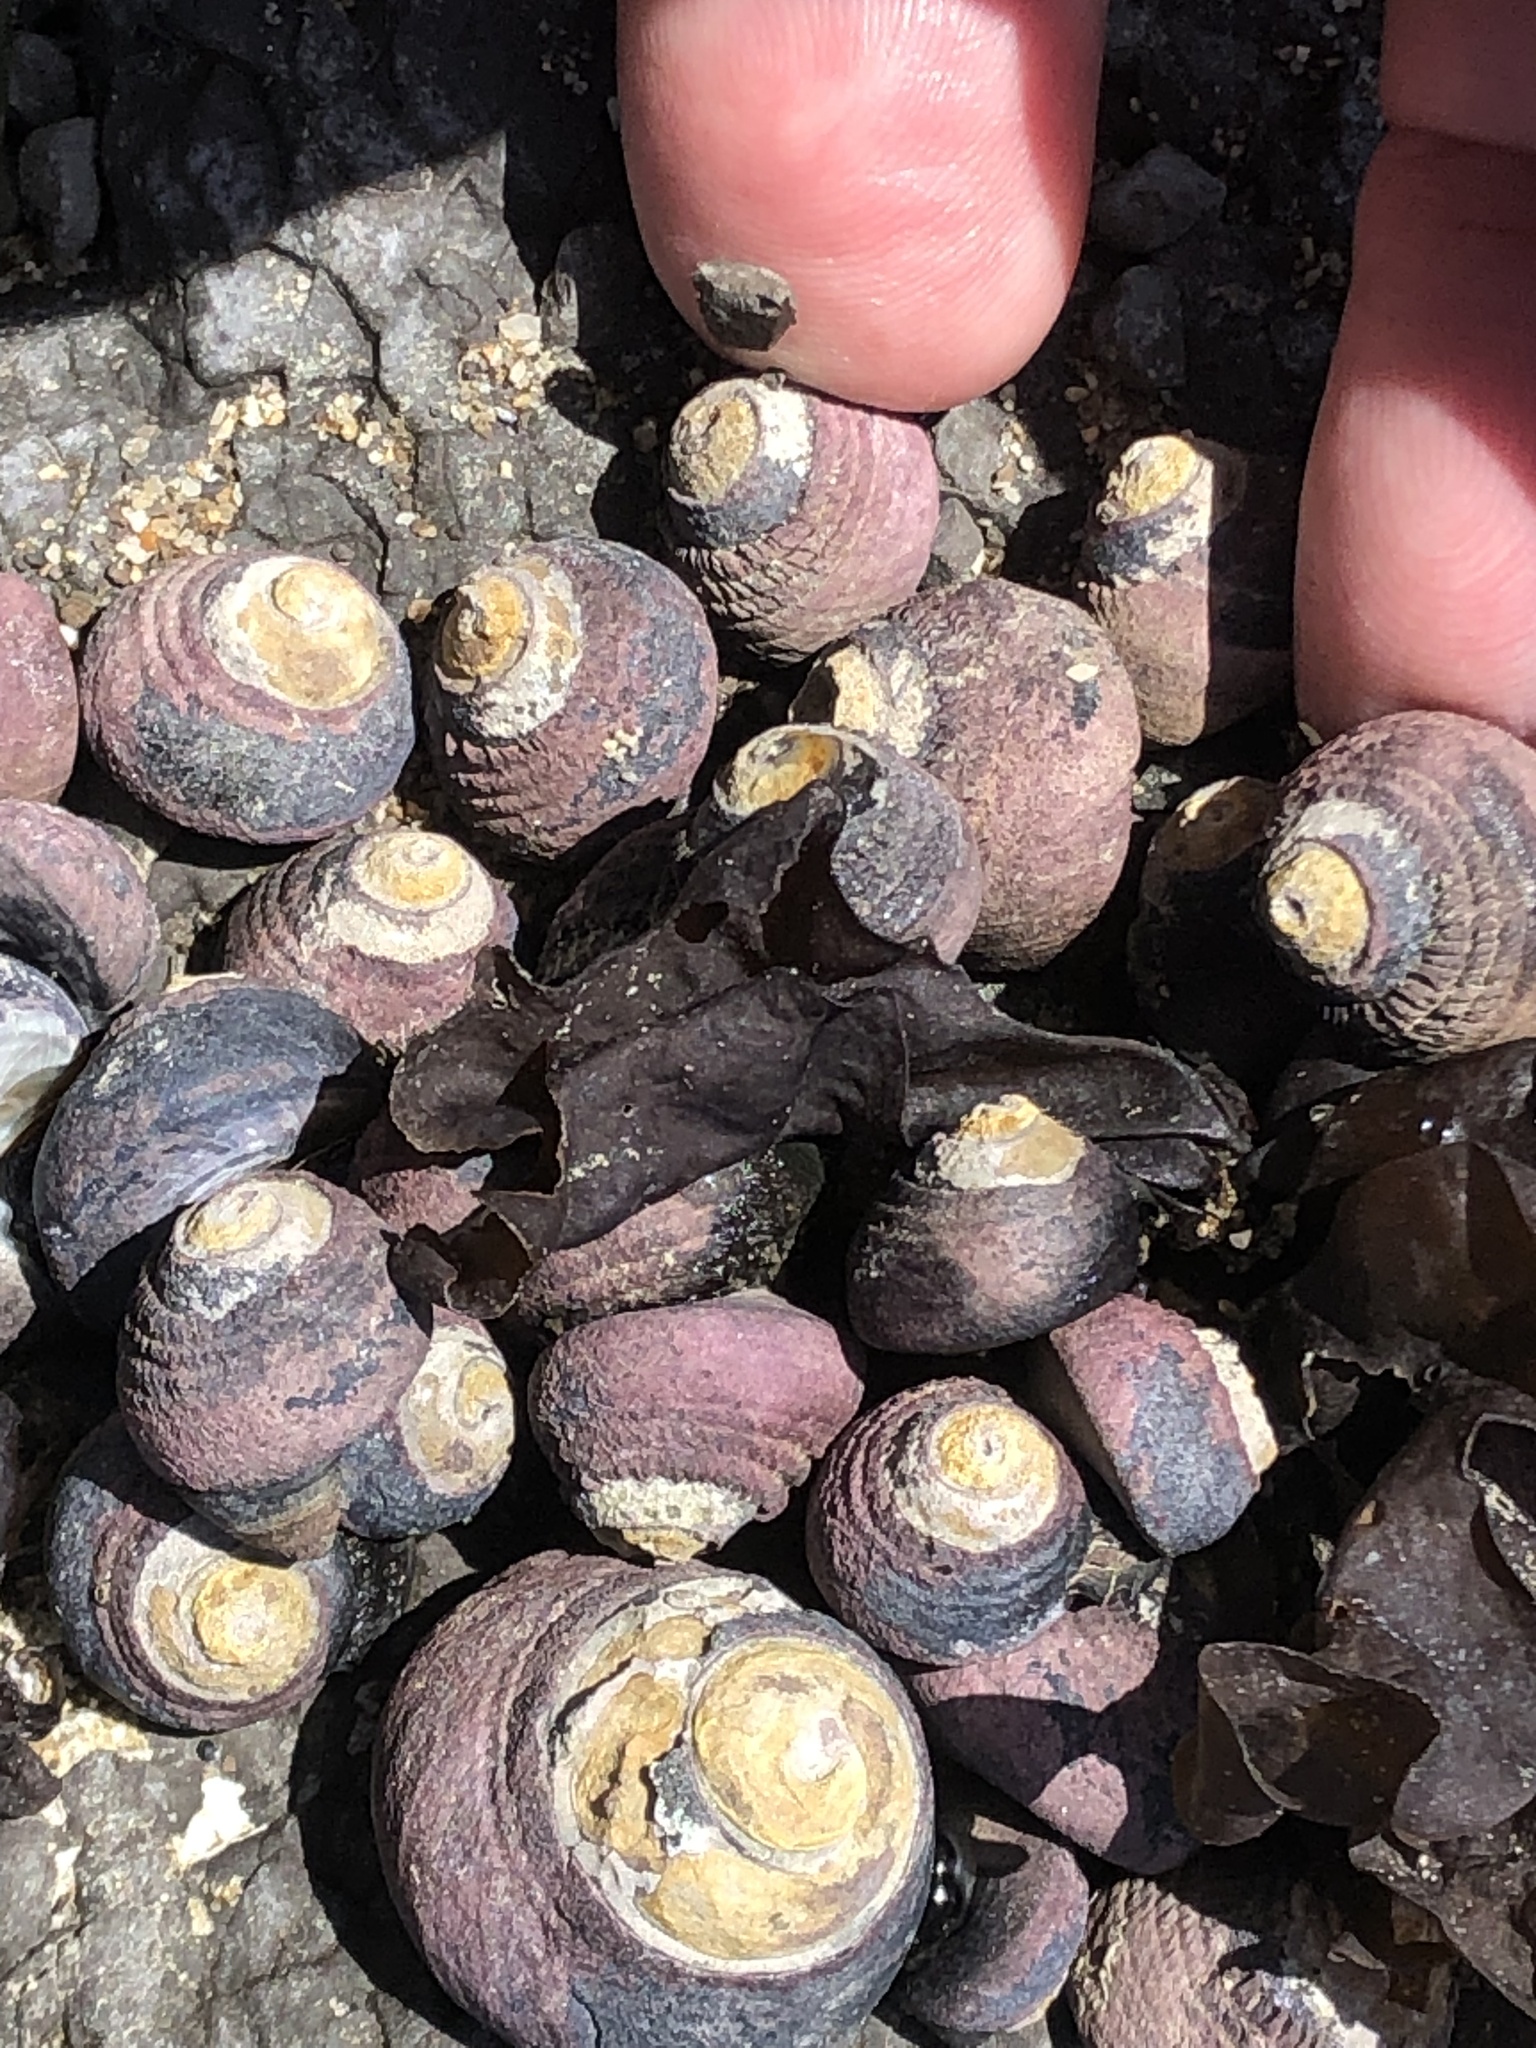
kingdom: Animalia
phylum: Mollusca
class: Gastropoda
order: Trochida
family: Tegulidae
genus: Tegula
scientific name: Tegula funebralis
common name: Black tegula
